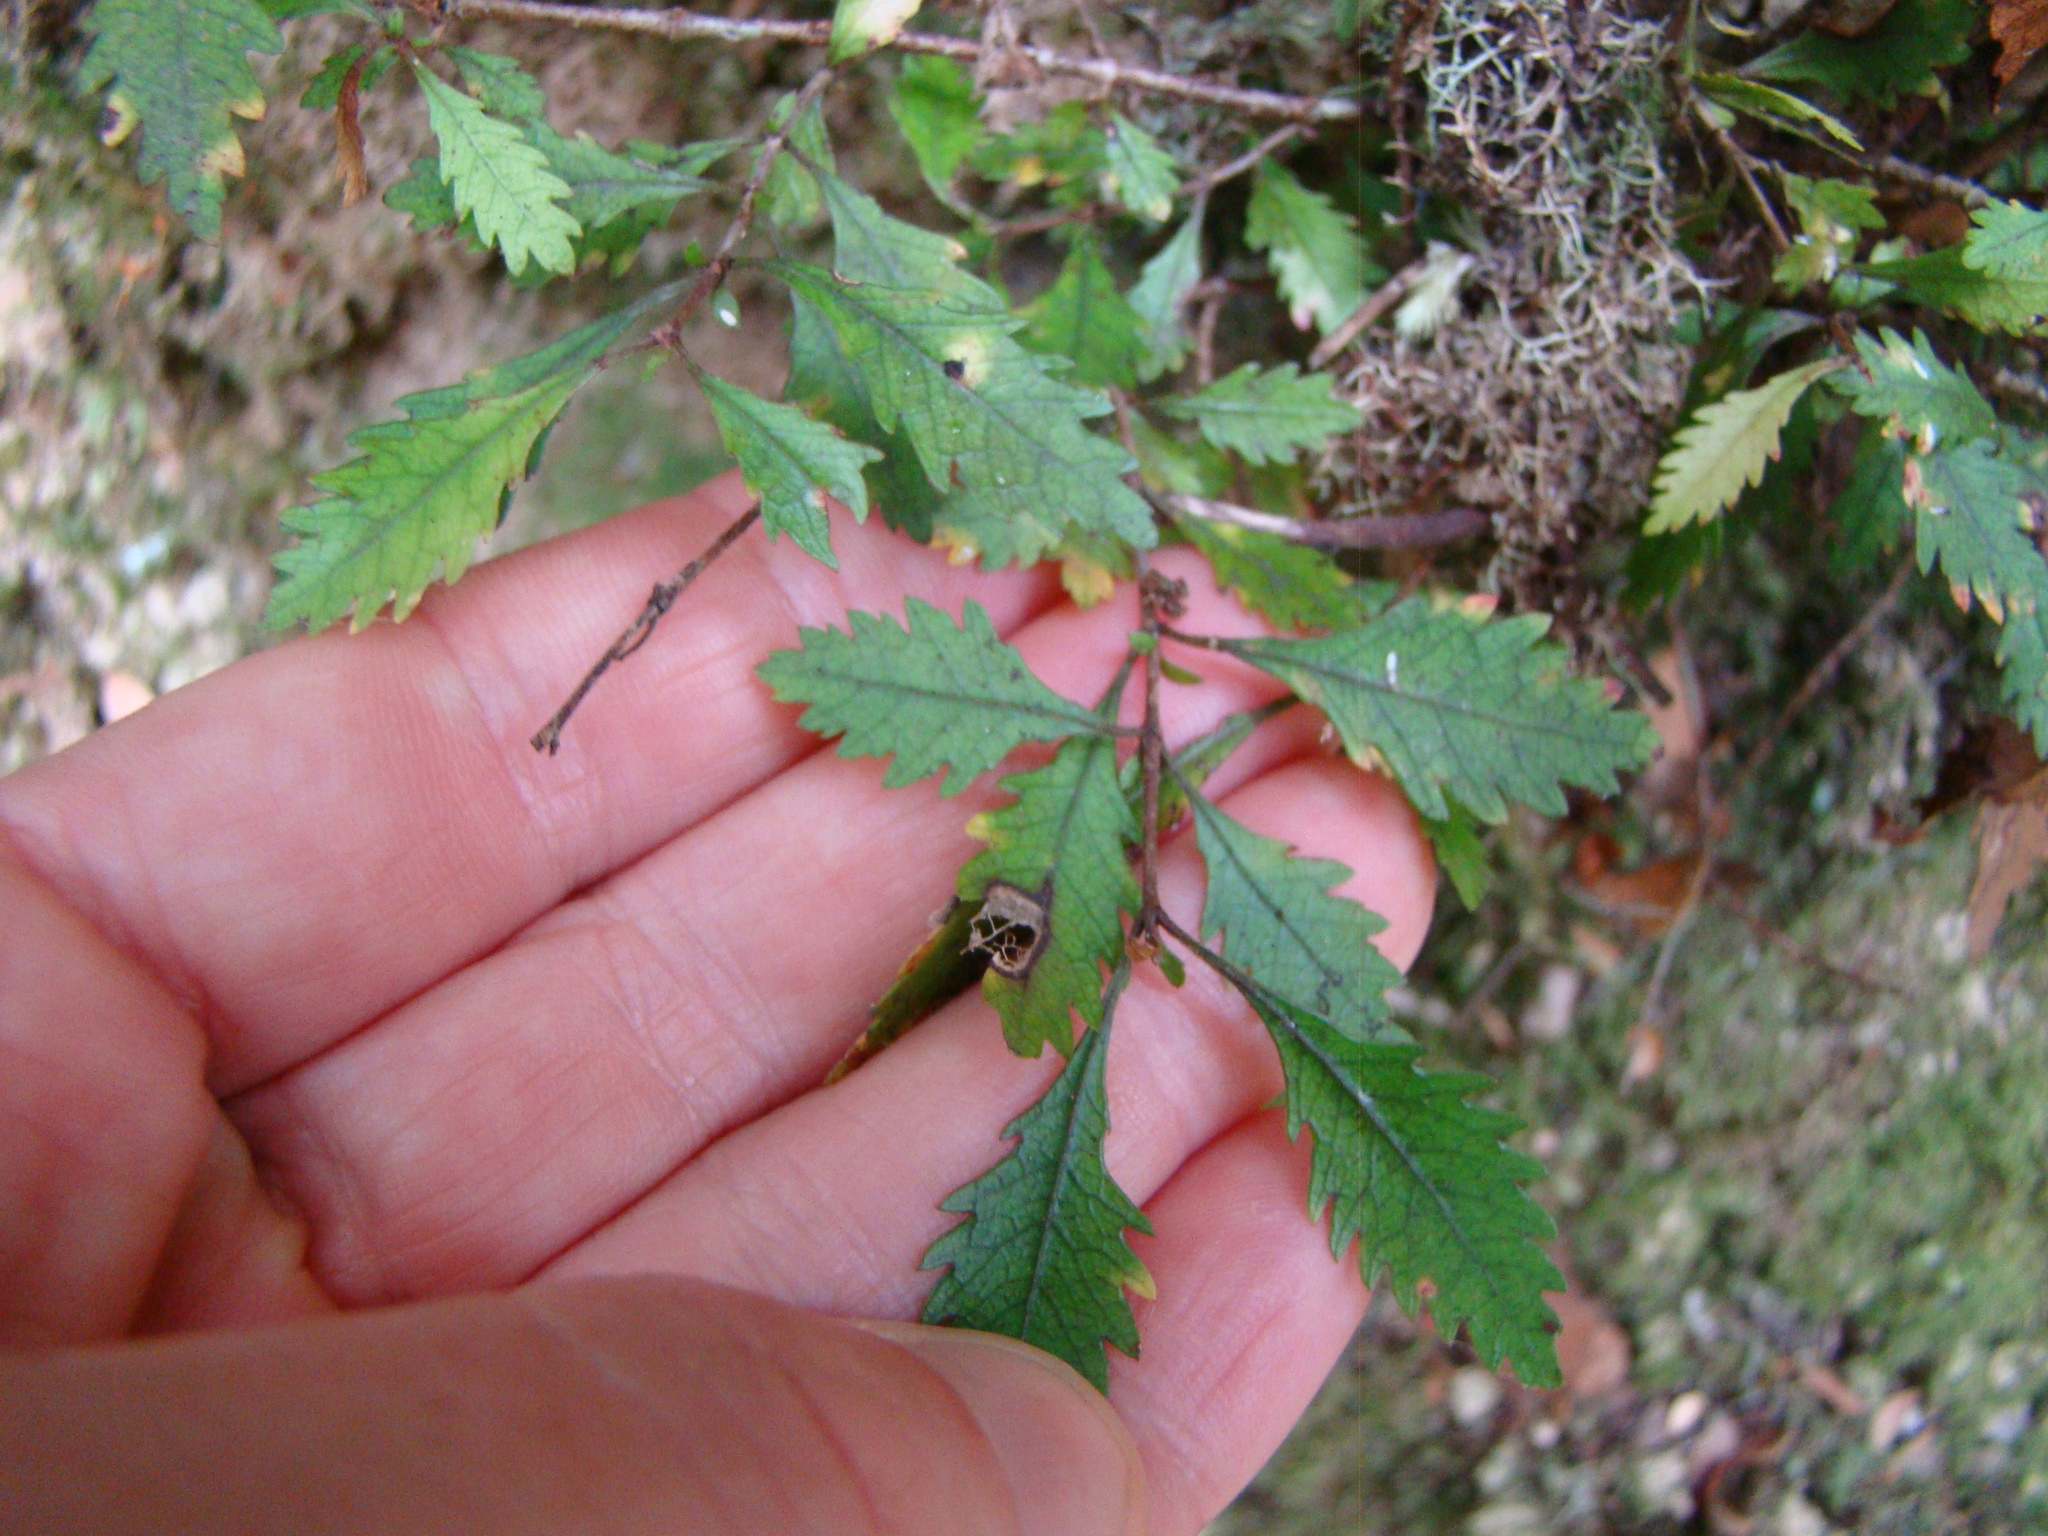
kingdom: Plantae
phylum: Tracheophyta
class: Magnoliopsida
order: Oxalidales
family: Cunoniaceae
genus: Pterophylla
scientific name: Pterophylla racemosa
